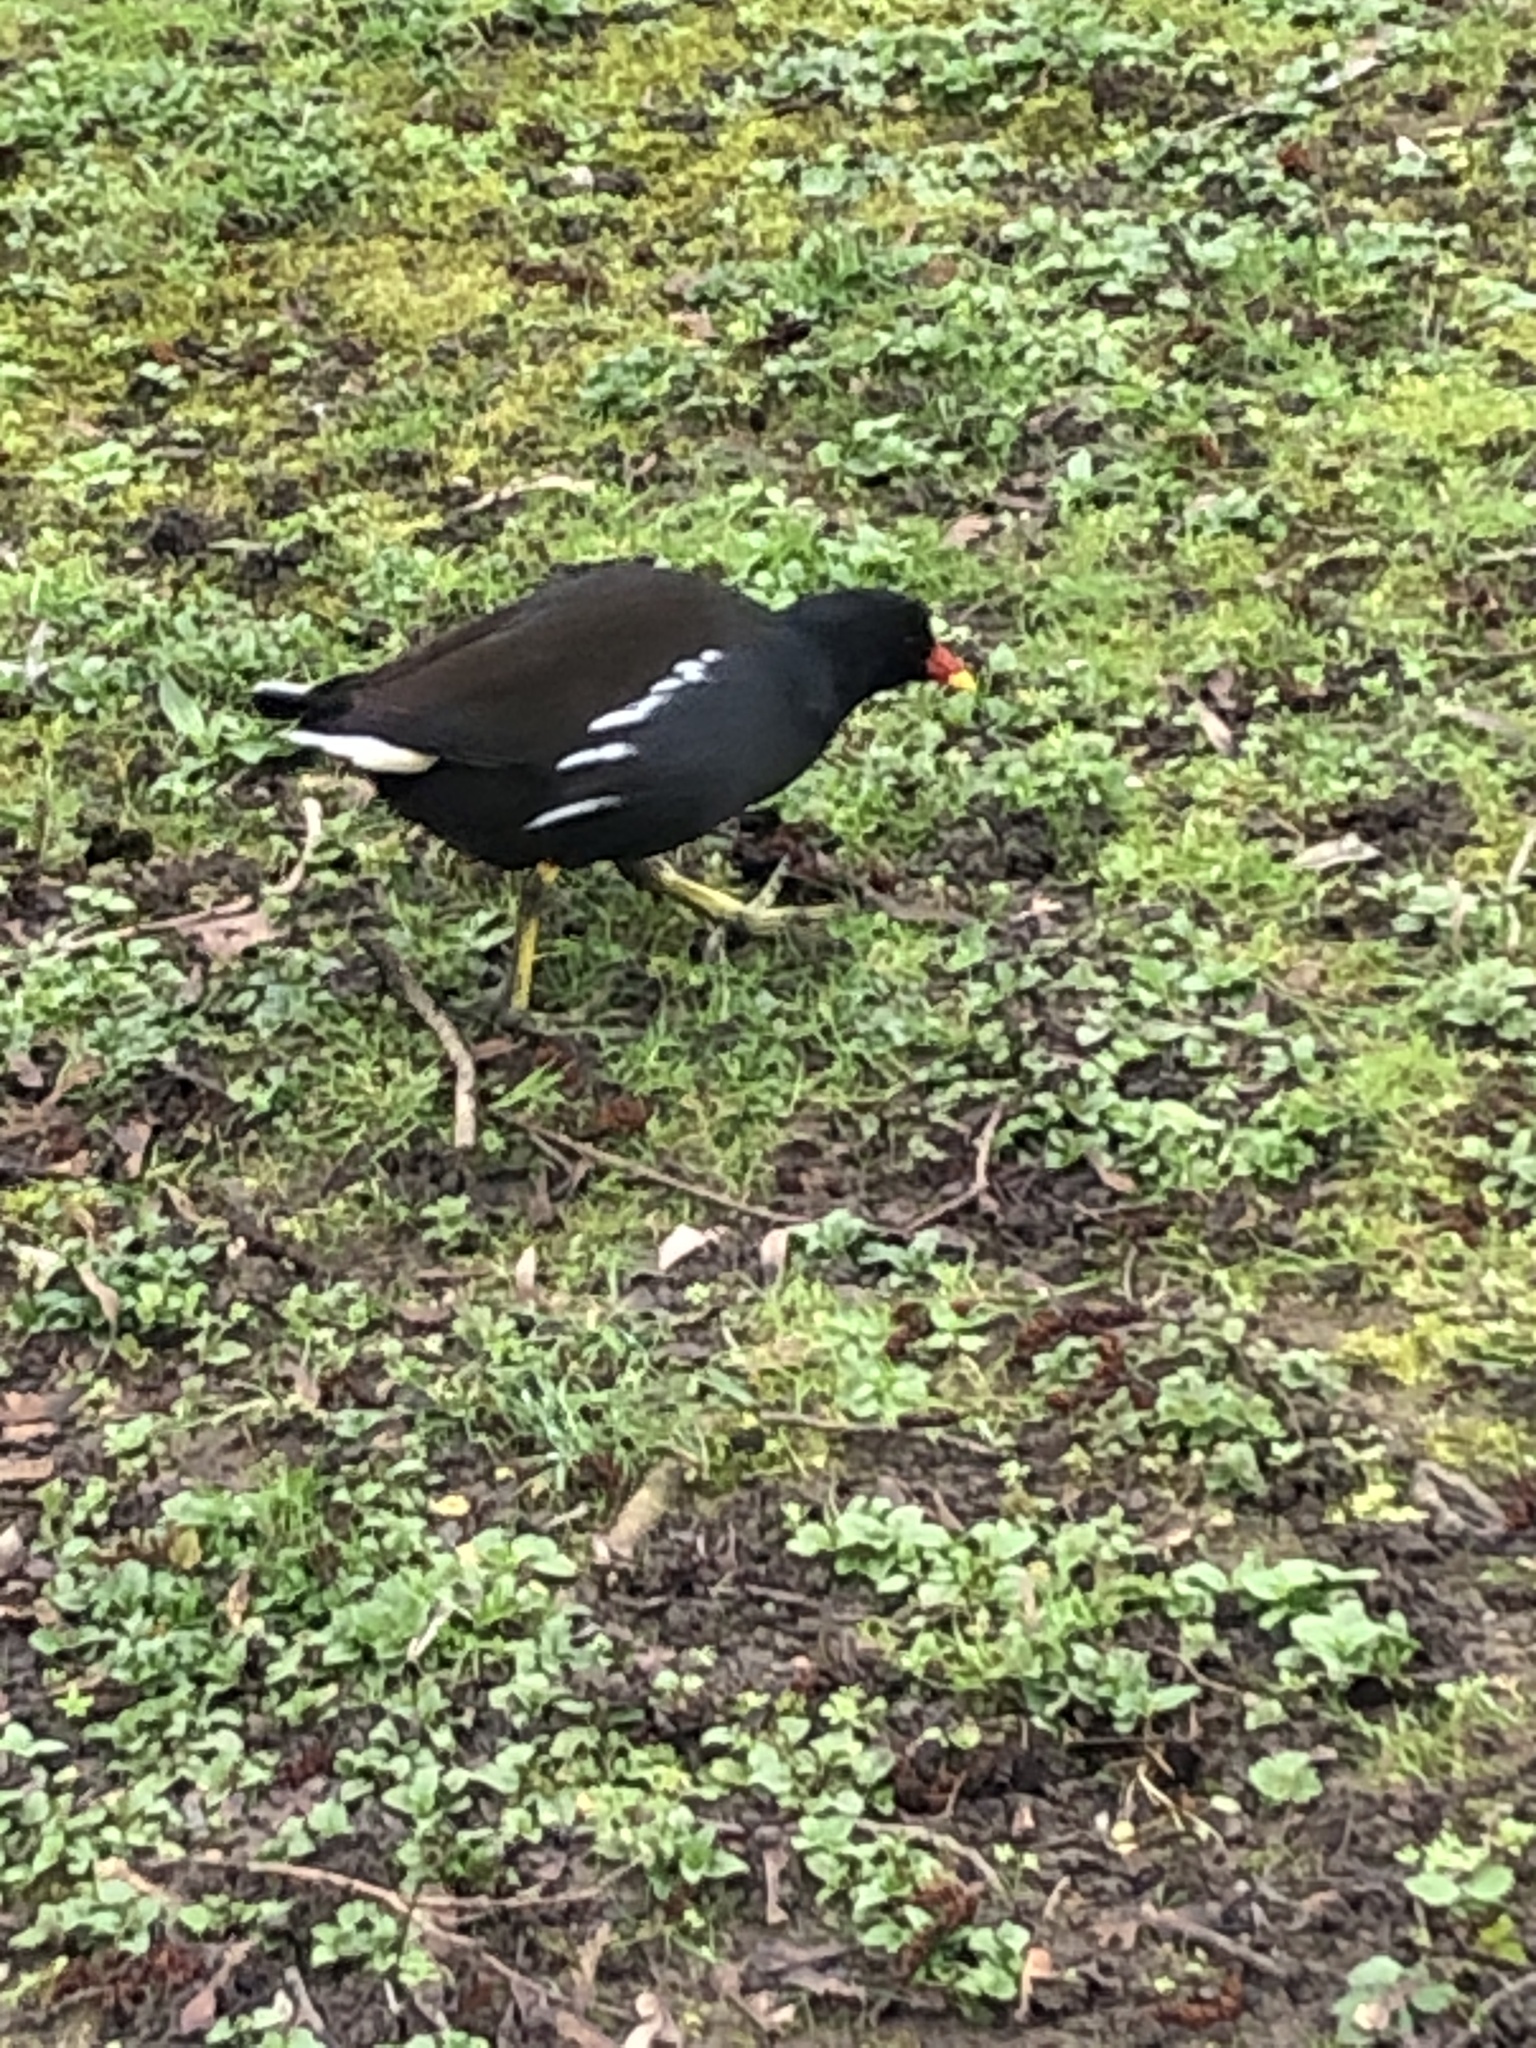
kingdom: Animalia
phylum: Chordata
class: Aves
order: Gruiformes
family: Rallidae
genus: Gallinula
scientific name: Gallinula chloropus
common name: Common moorhen
